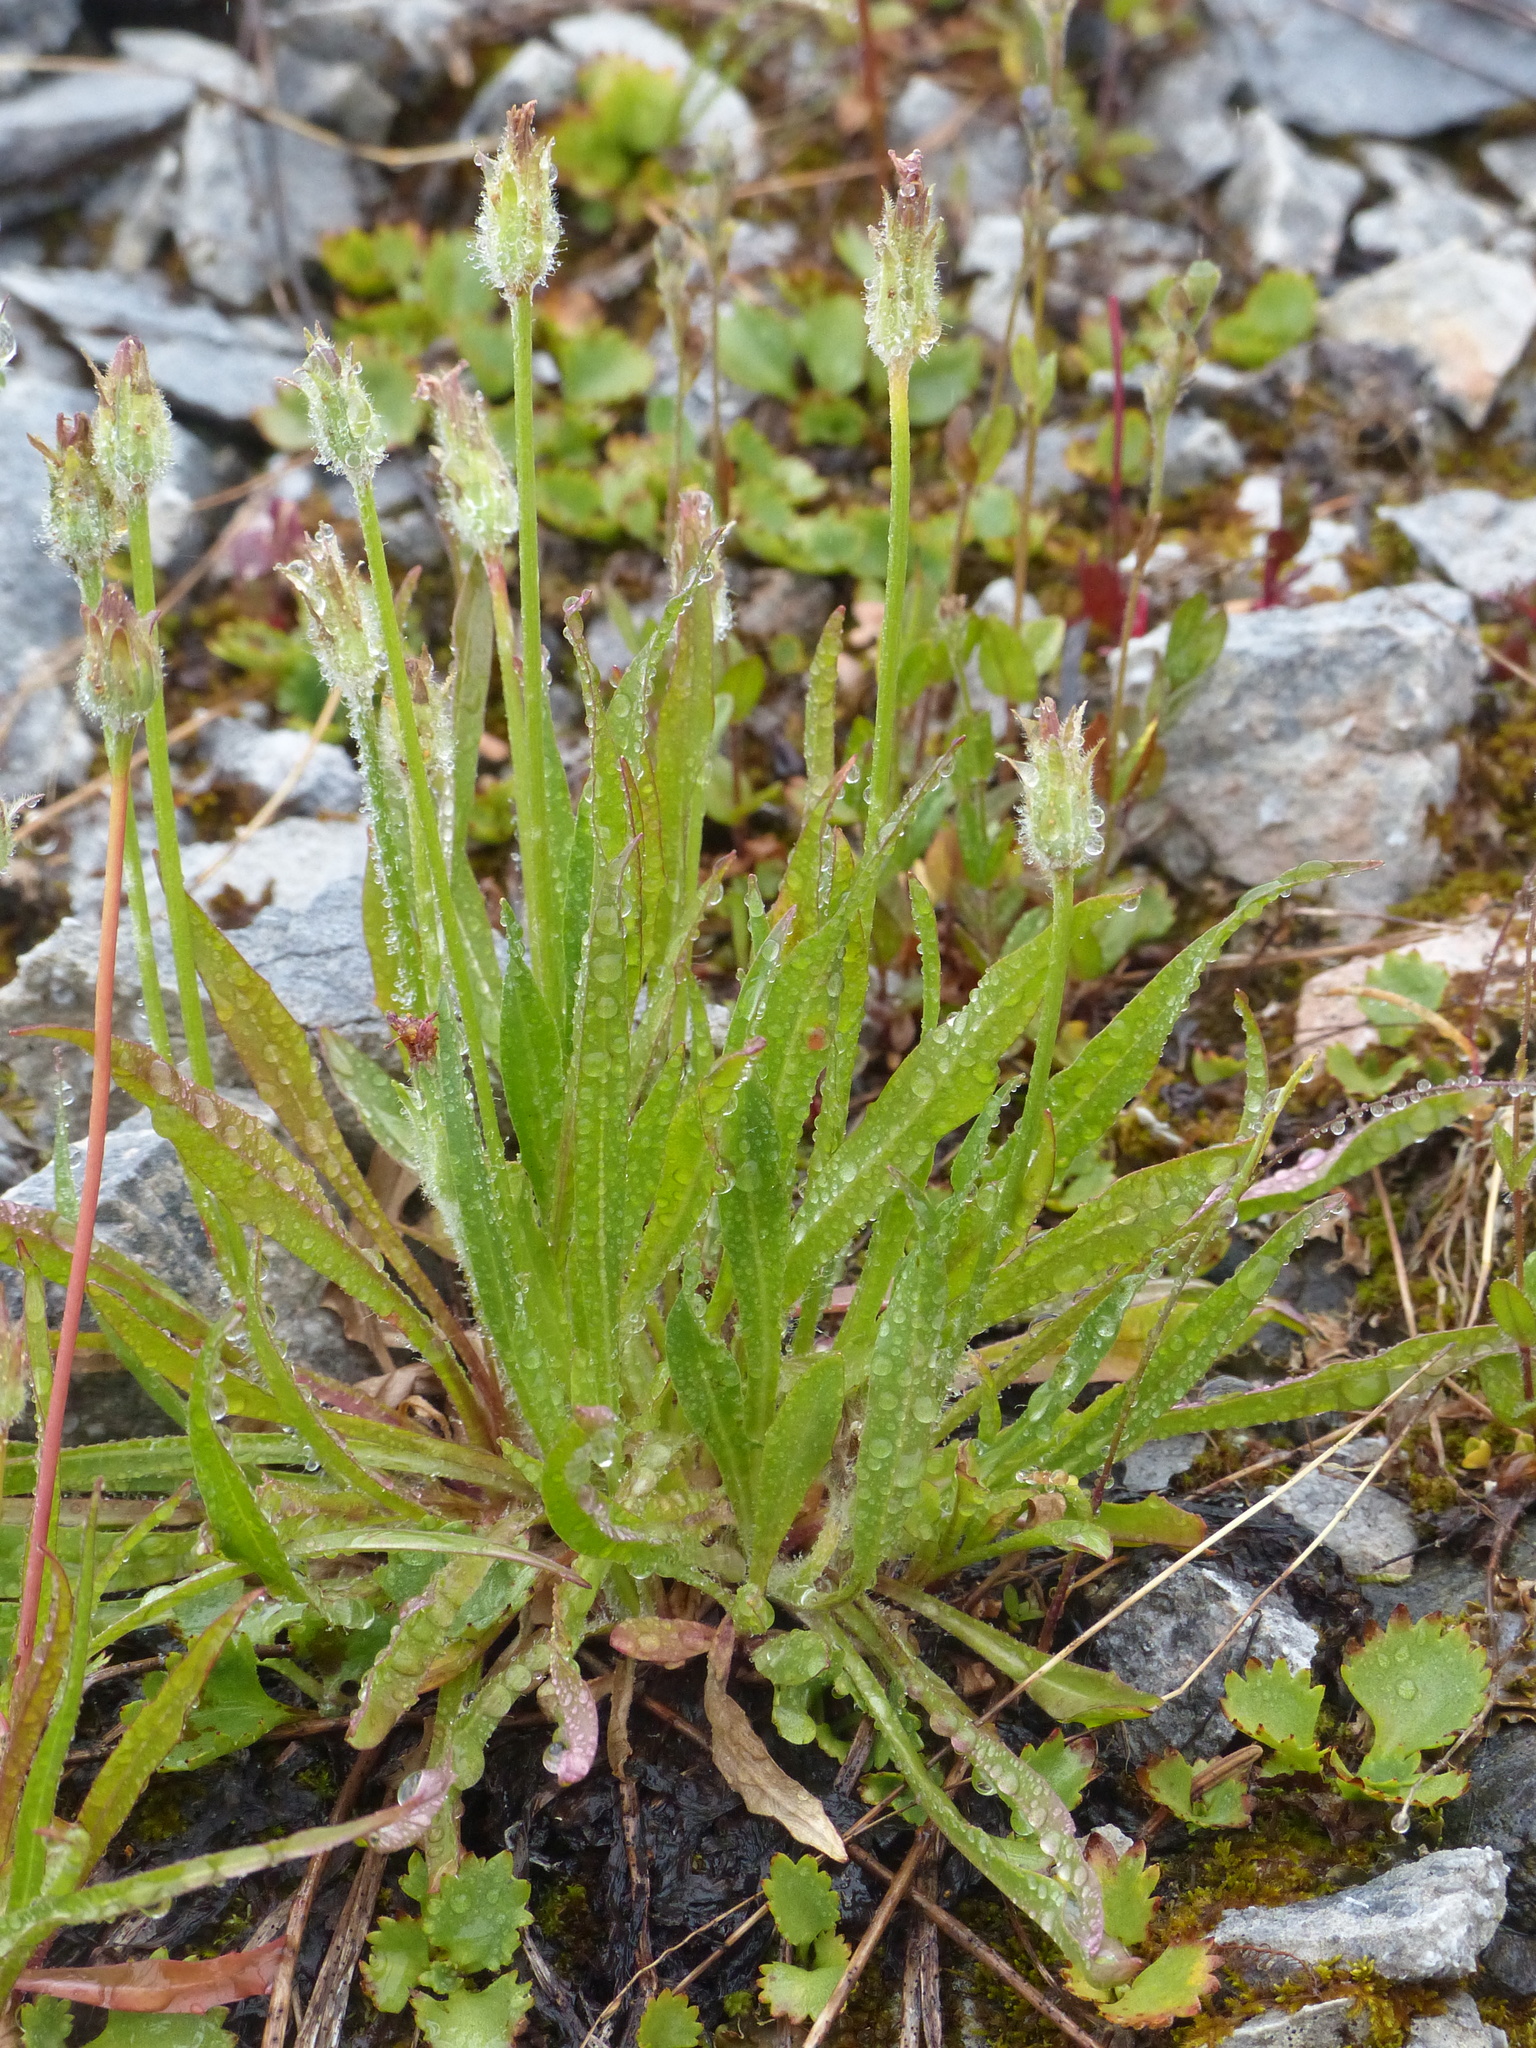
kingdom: Plantae
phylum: Tracheophyta
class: Magnoliopsida
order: Asterales
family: Asteraceae
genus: Agoseris
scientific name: Agoseris aurantiaca
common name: Mountain agoseris
